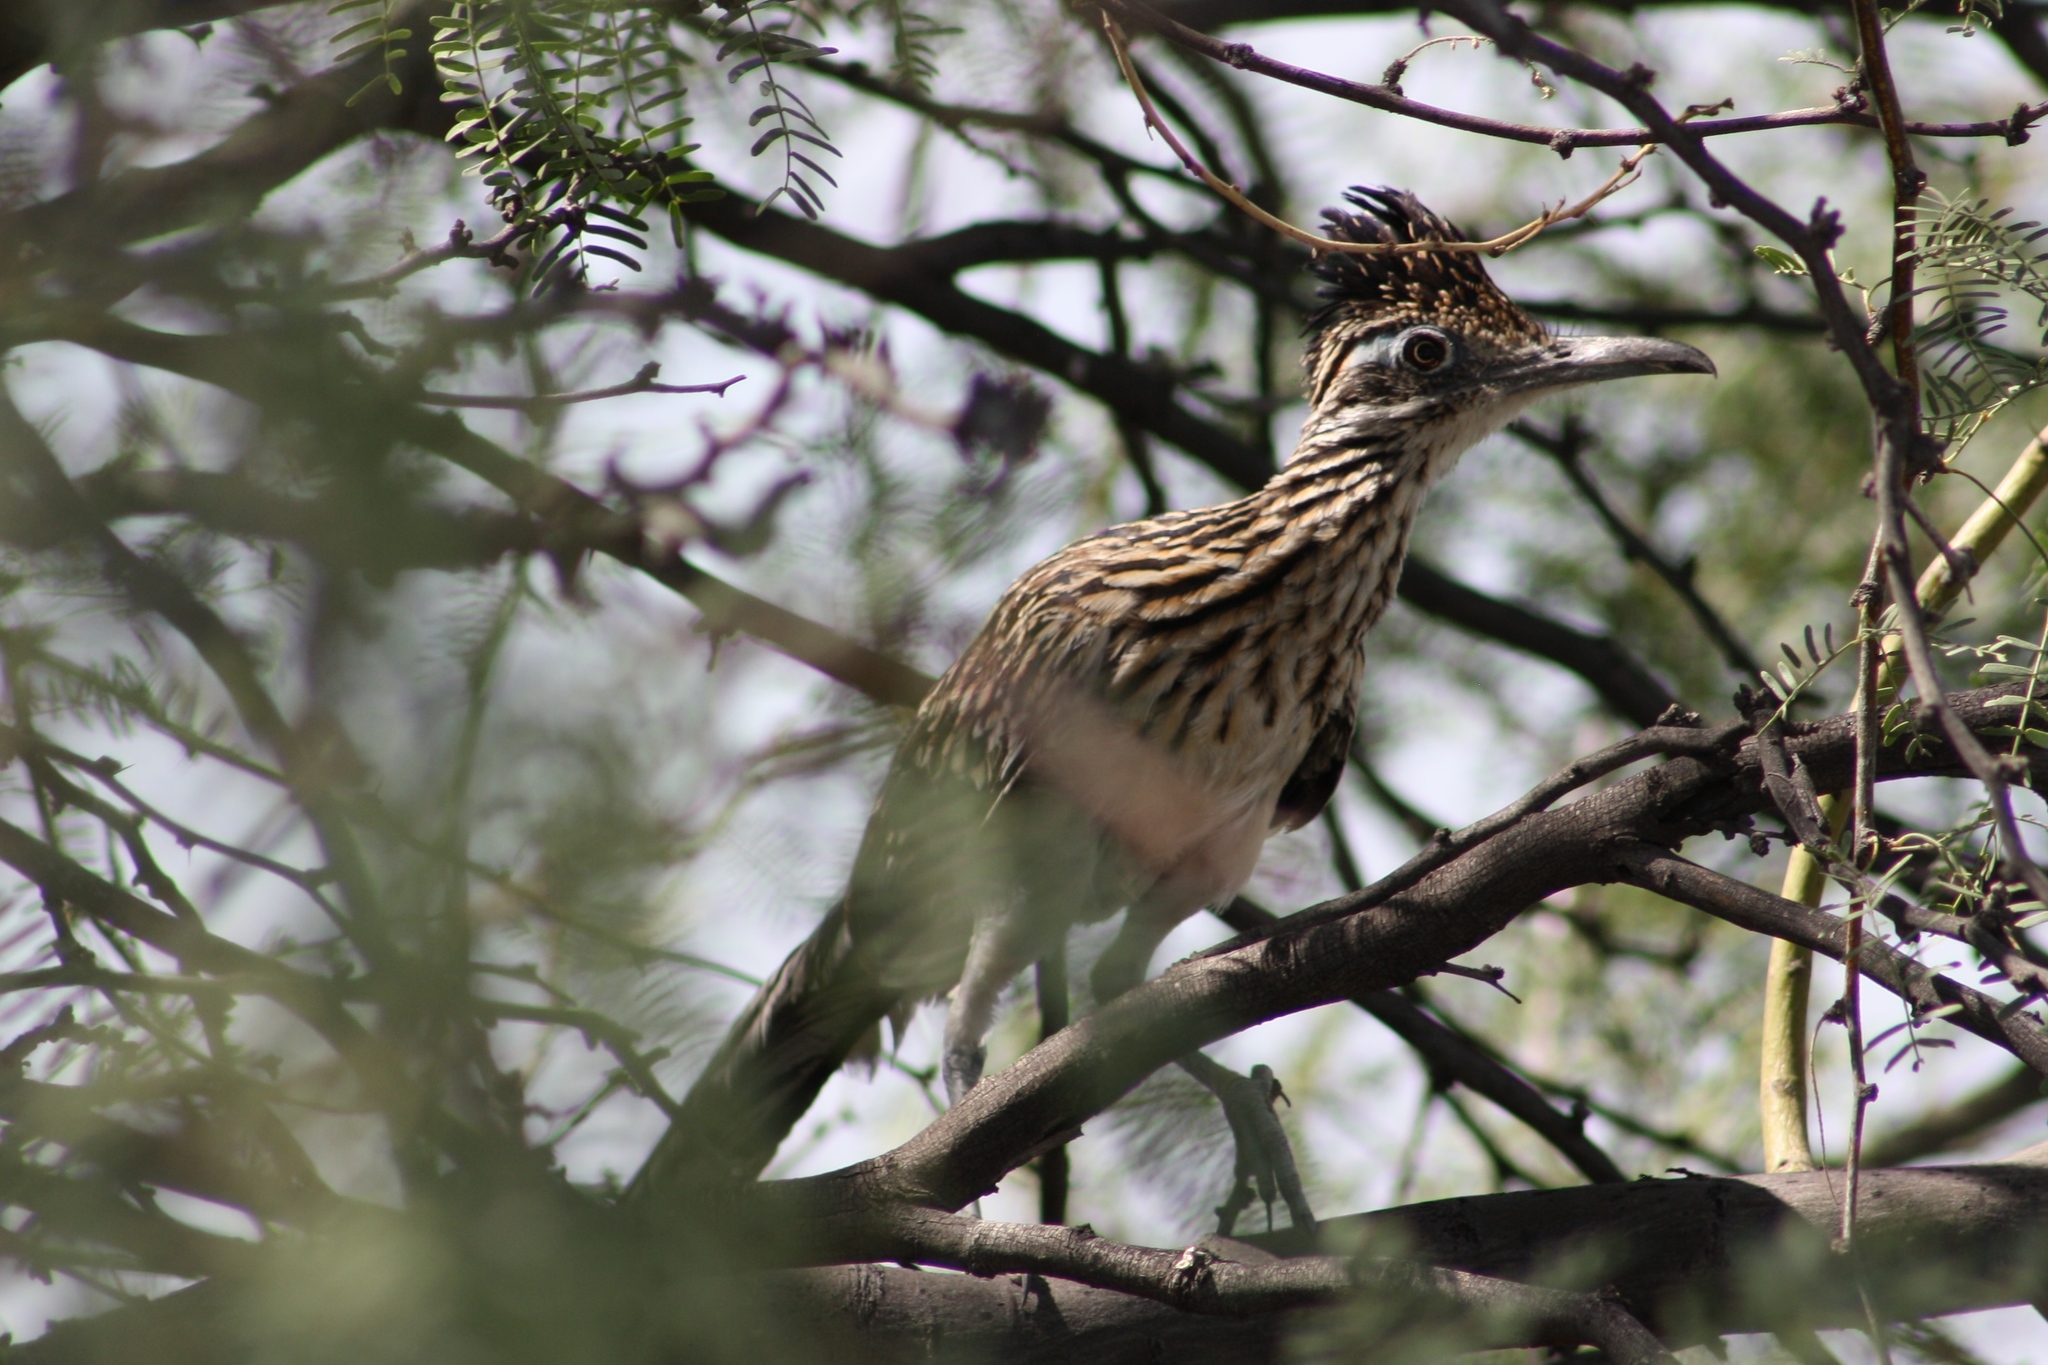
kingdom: Animalia
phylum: Chordata
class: Aves
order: Cuculiformes
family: Cuculidae
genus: Geococcyx
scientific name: Geococcyx californianus
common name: Greater roadrunner
